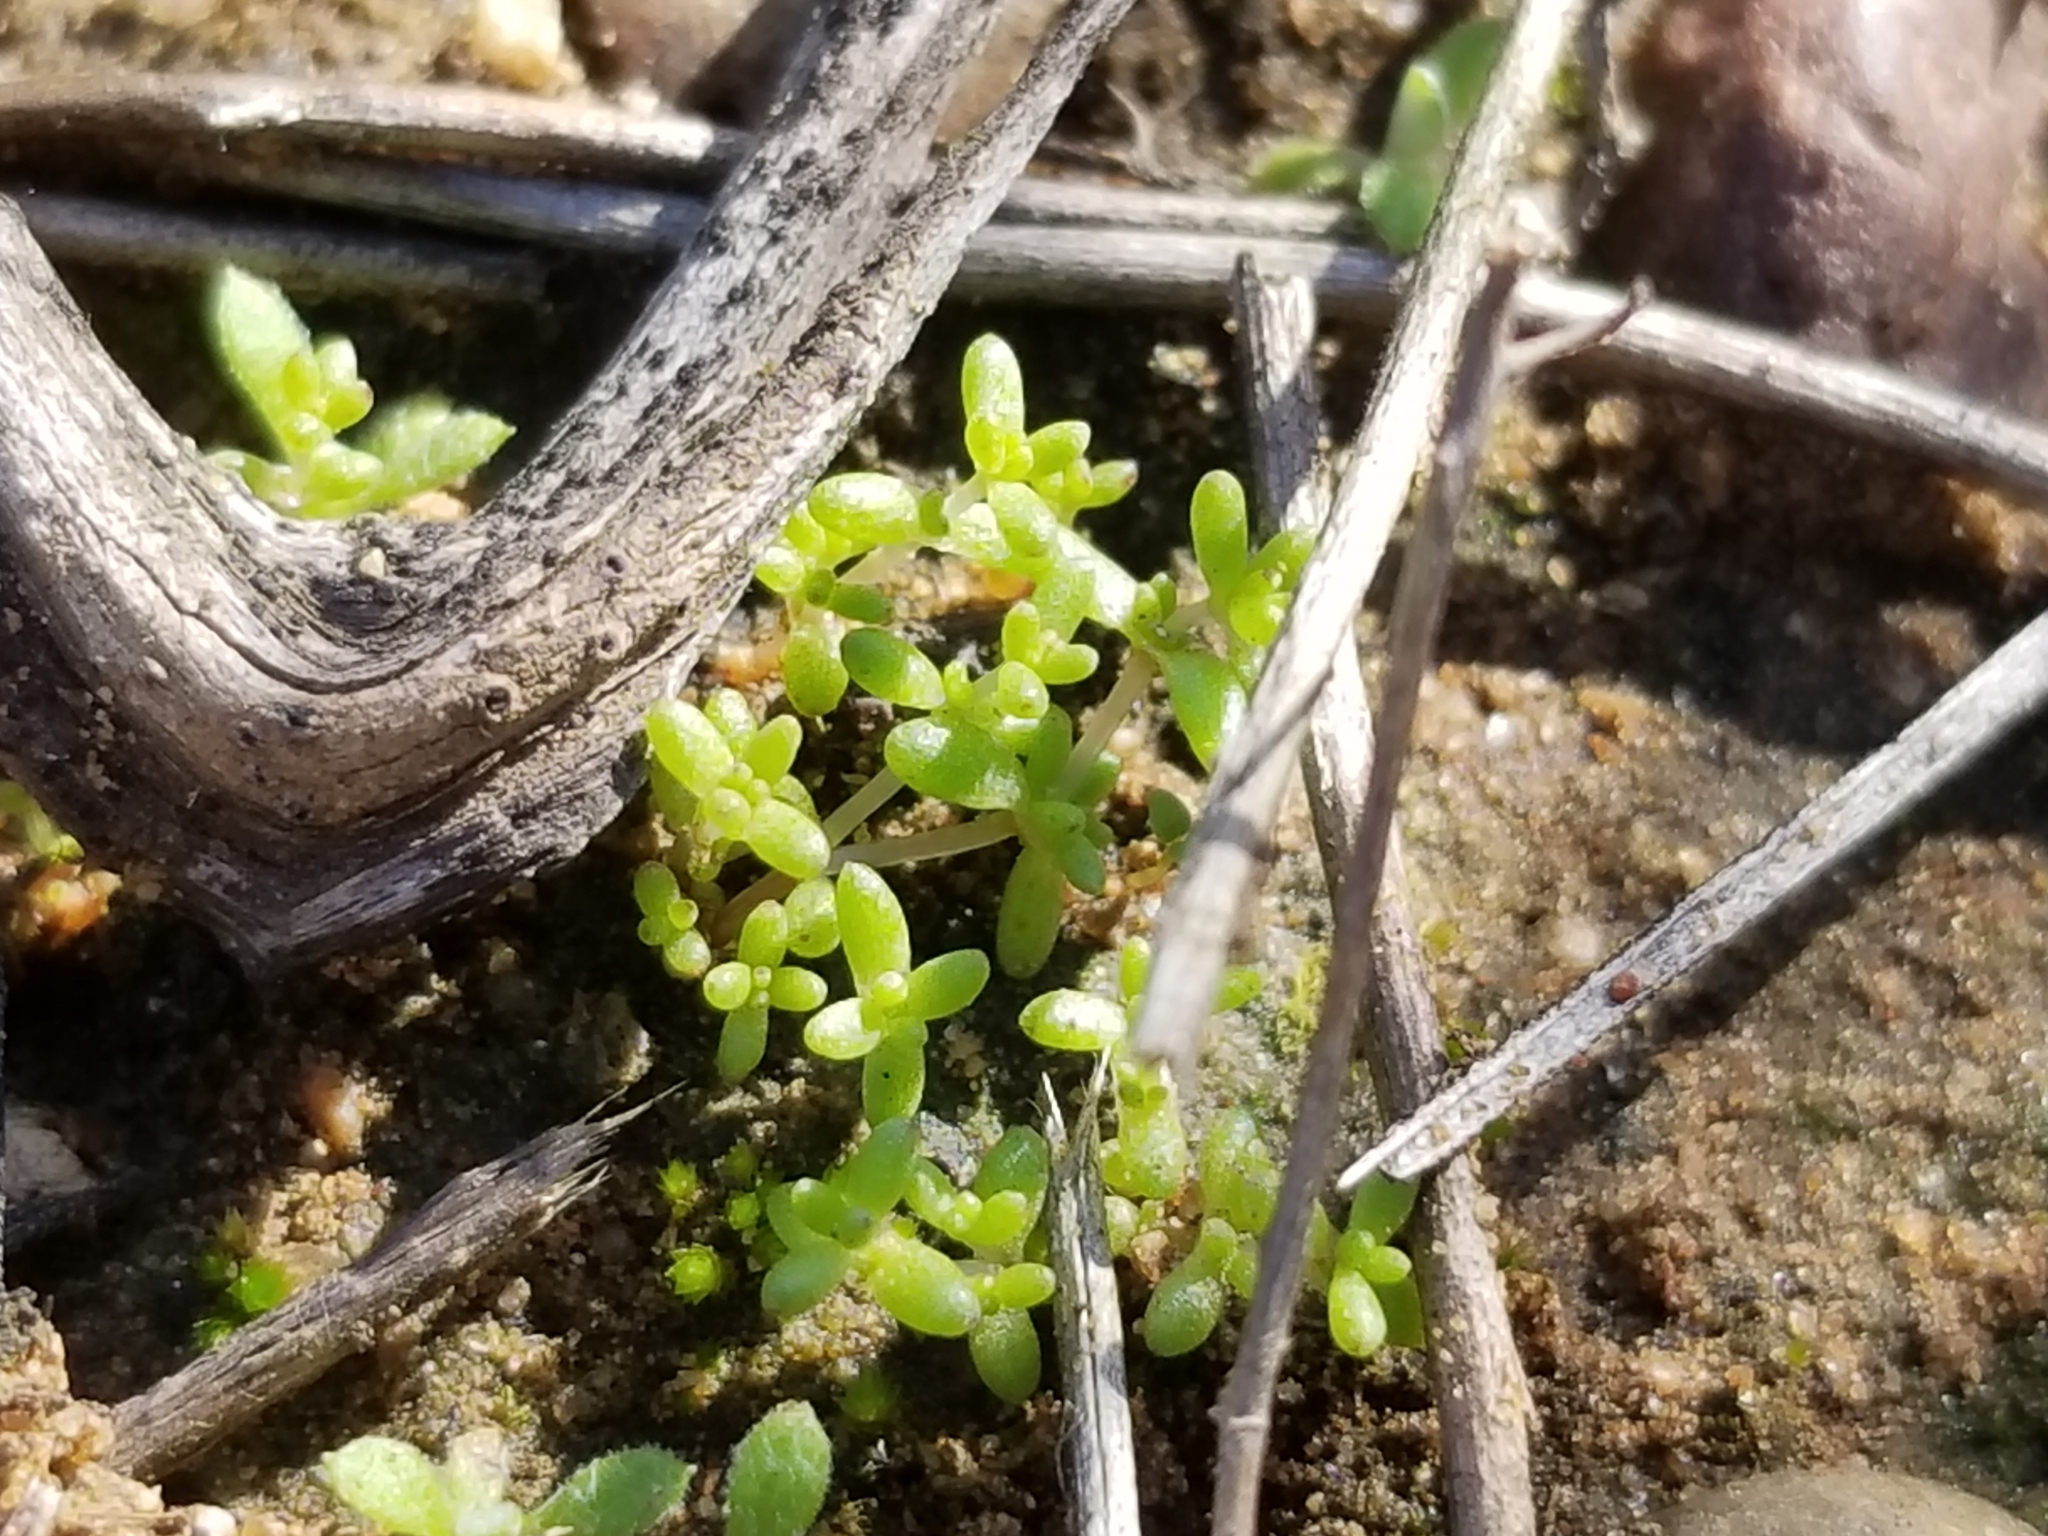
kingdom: Plantae
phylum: Tracheophyta
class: Magnoliopsida
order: Saxifragales
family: Crassulaceae
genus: Crassula
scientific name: Crassula connata
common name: Erect pygmyweed
